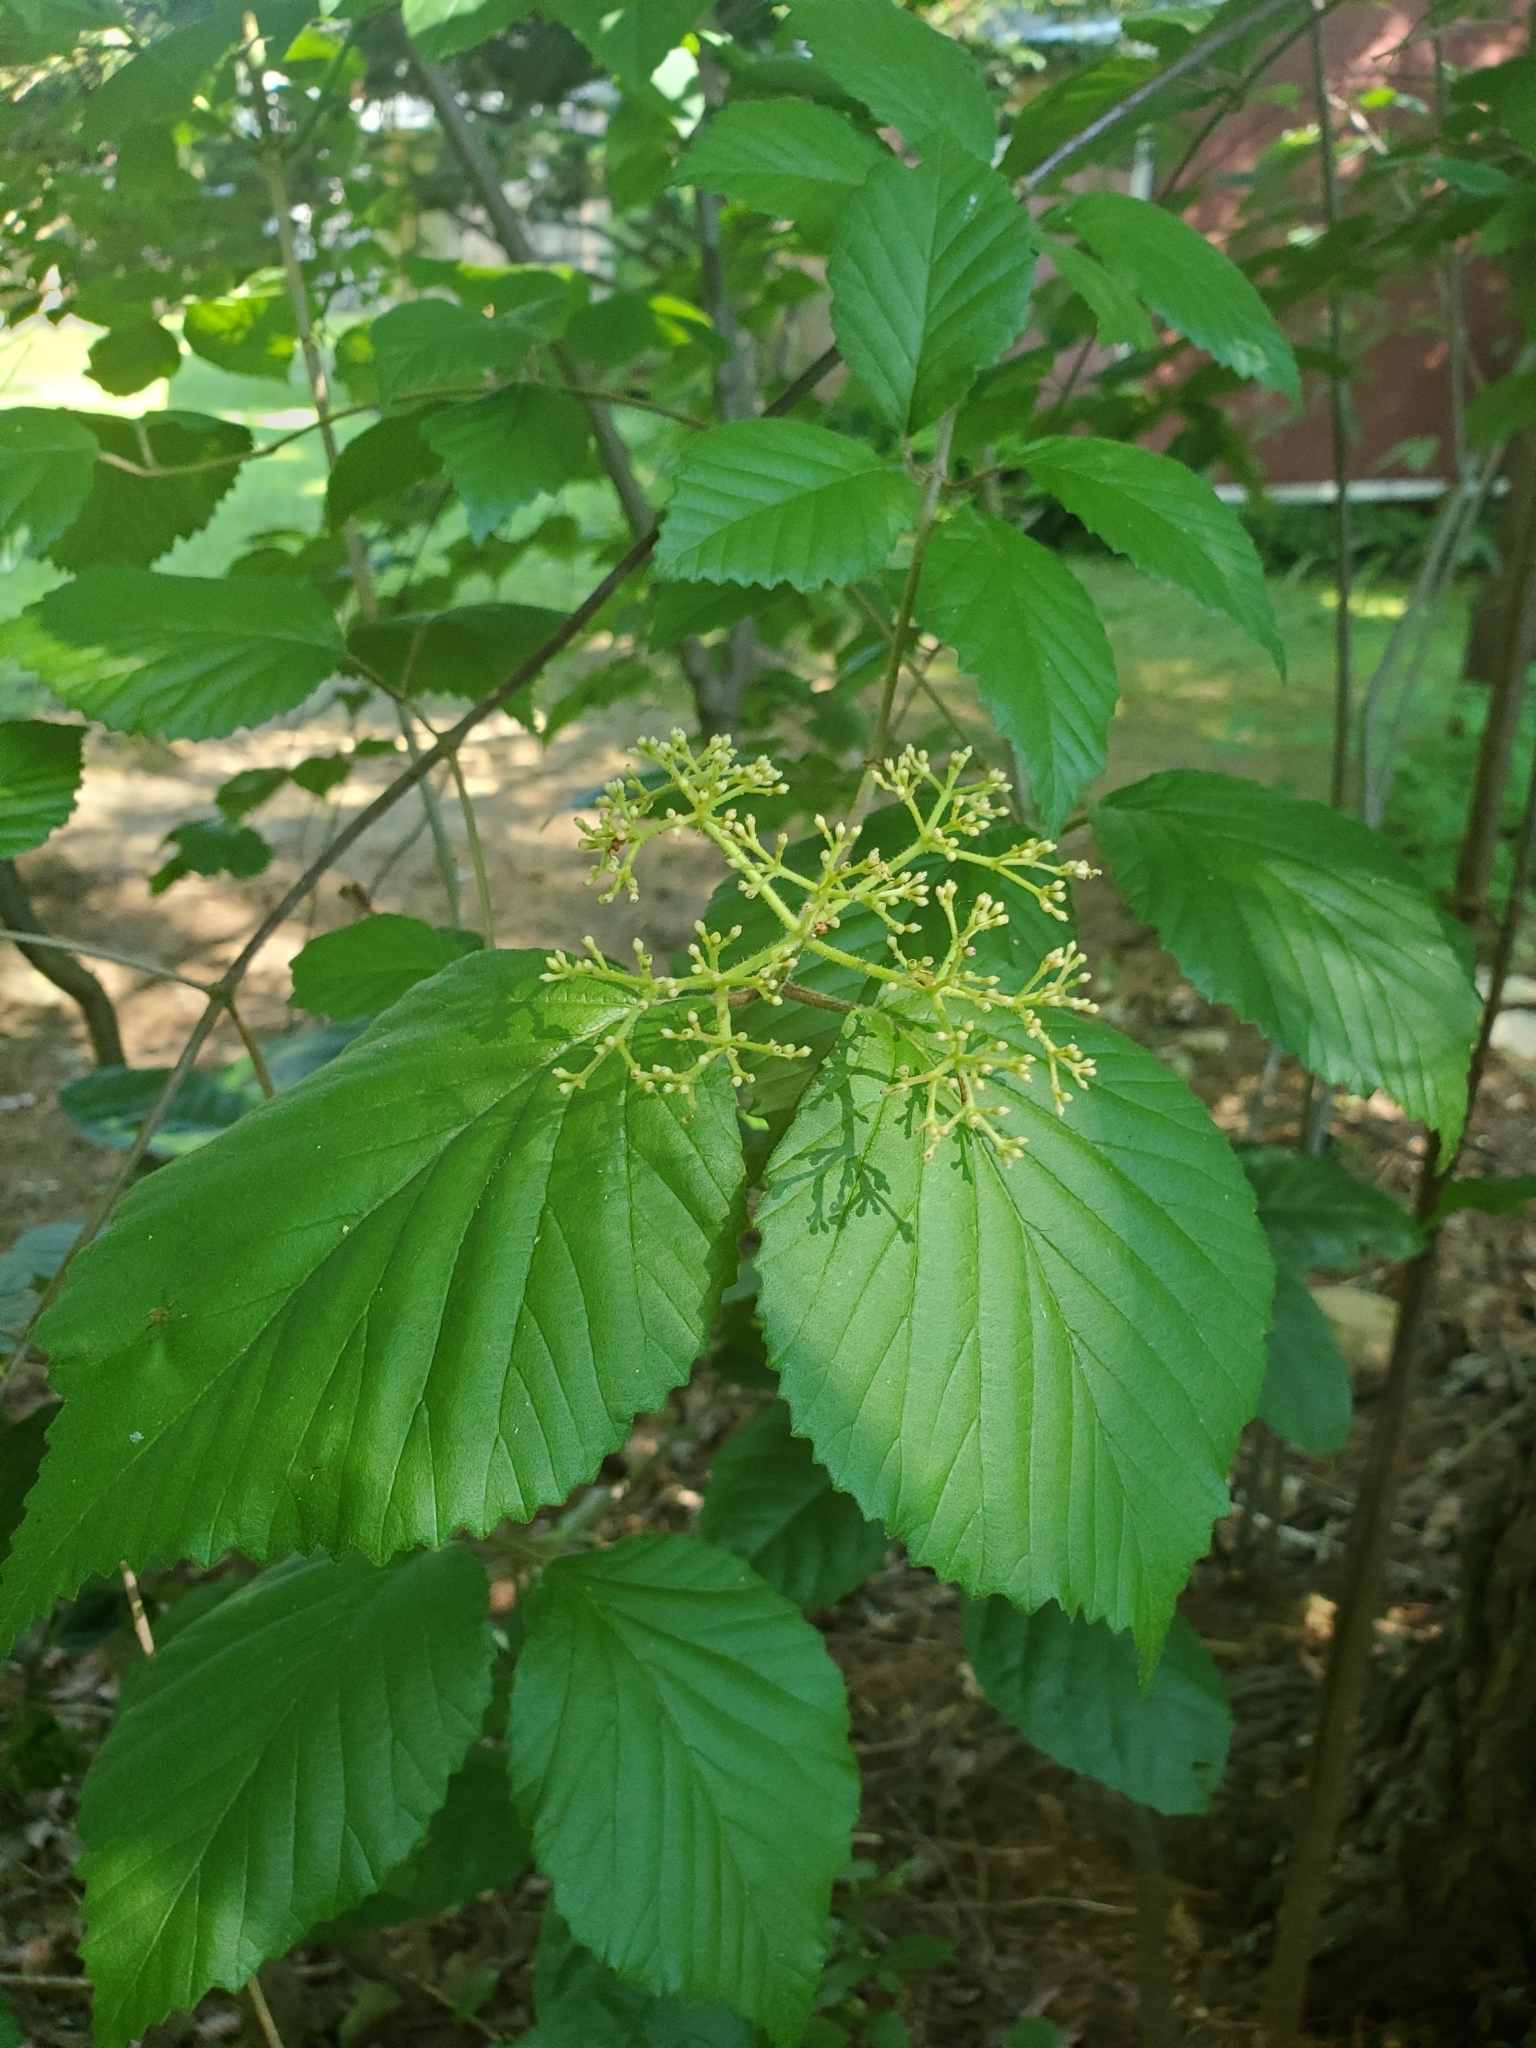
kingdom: Plantae
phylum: Tracheophyta
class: Magnoliopsida
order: Dipsacales
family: Viburnaceae
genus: Viburnum
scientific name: Viburnum dilatatum
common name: Linden arrowwood
